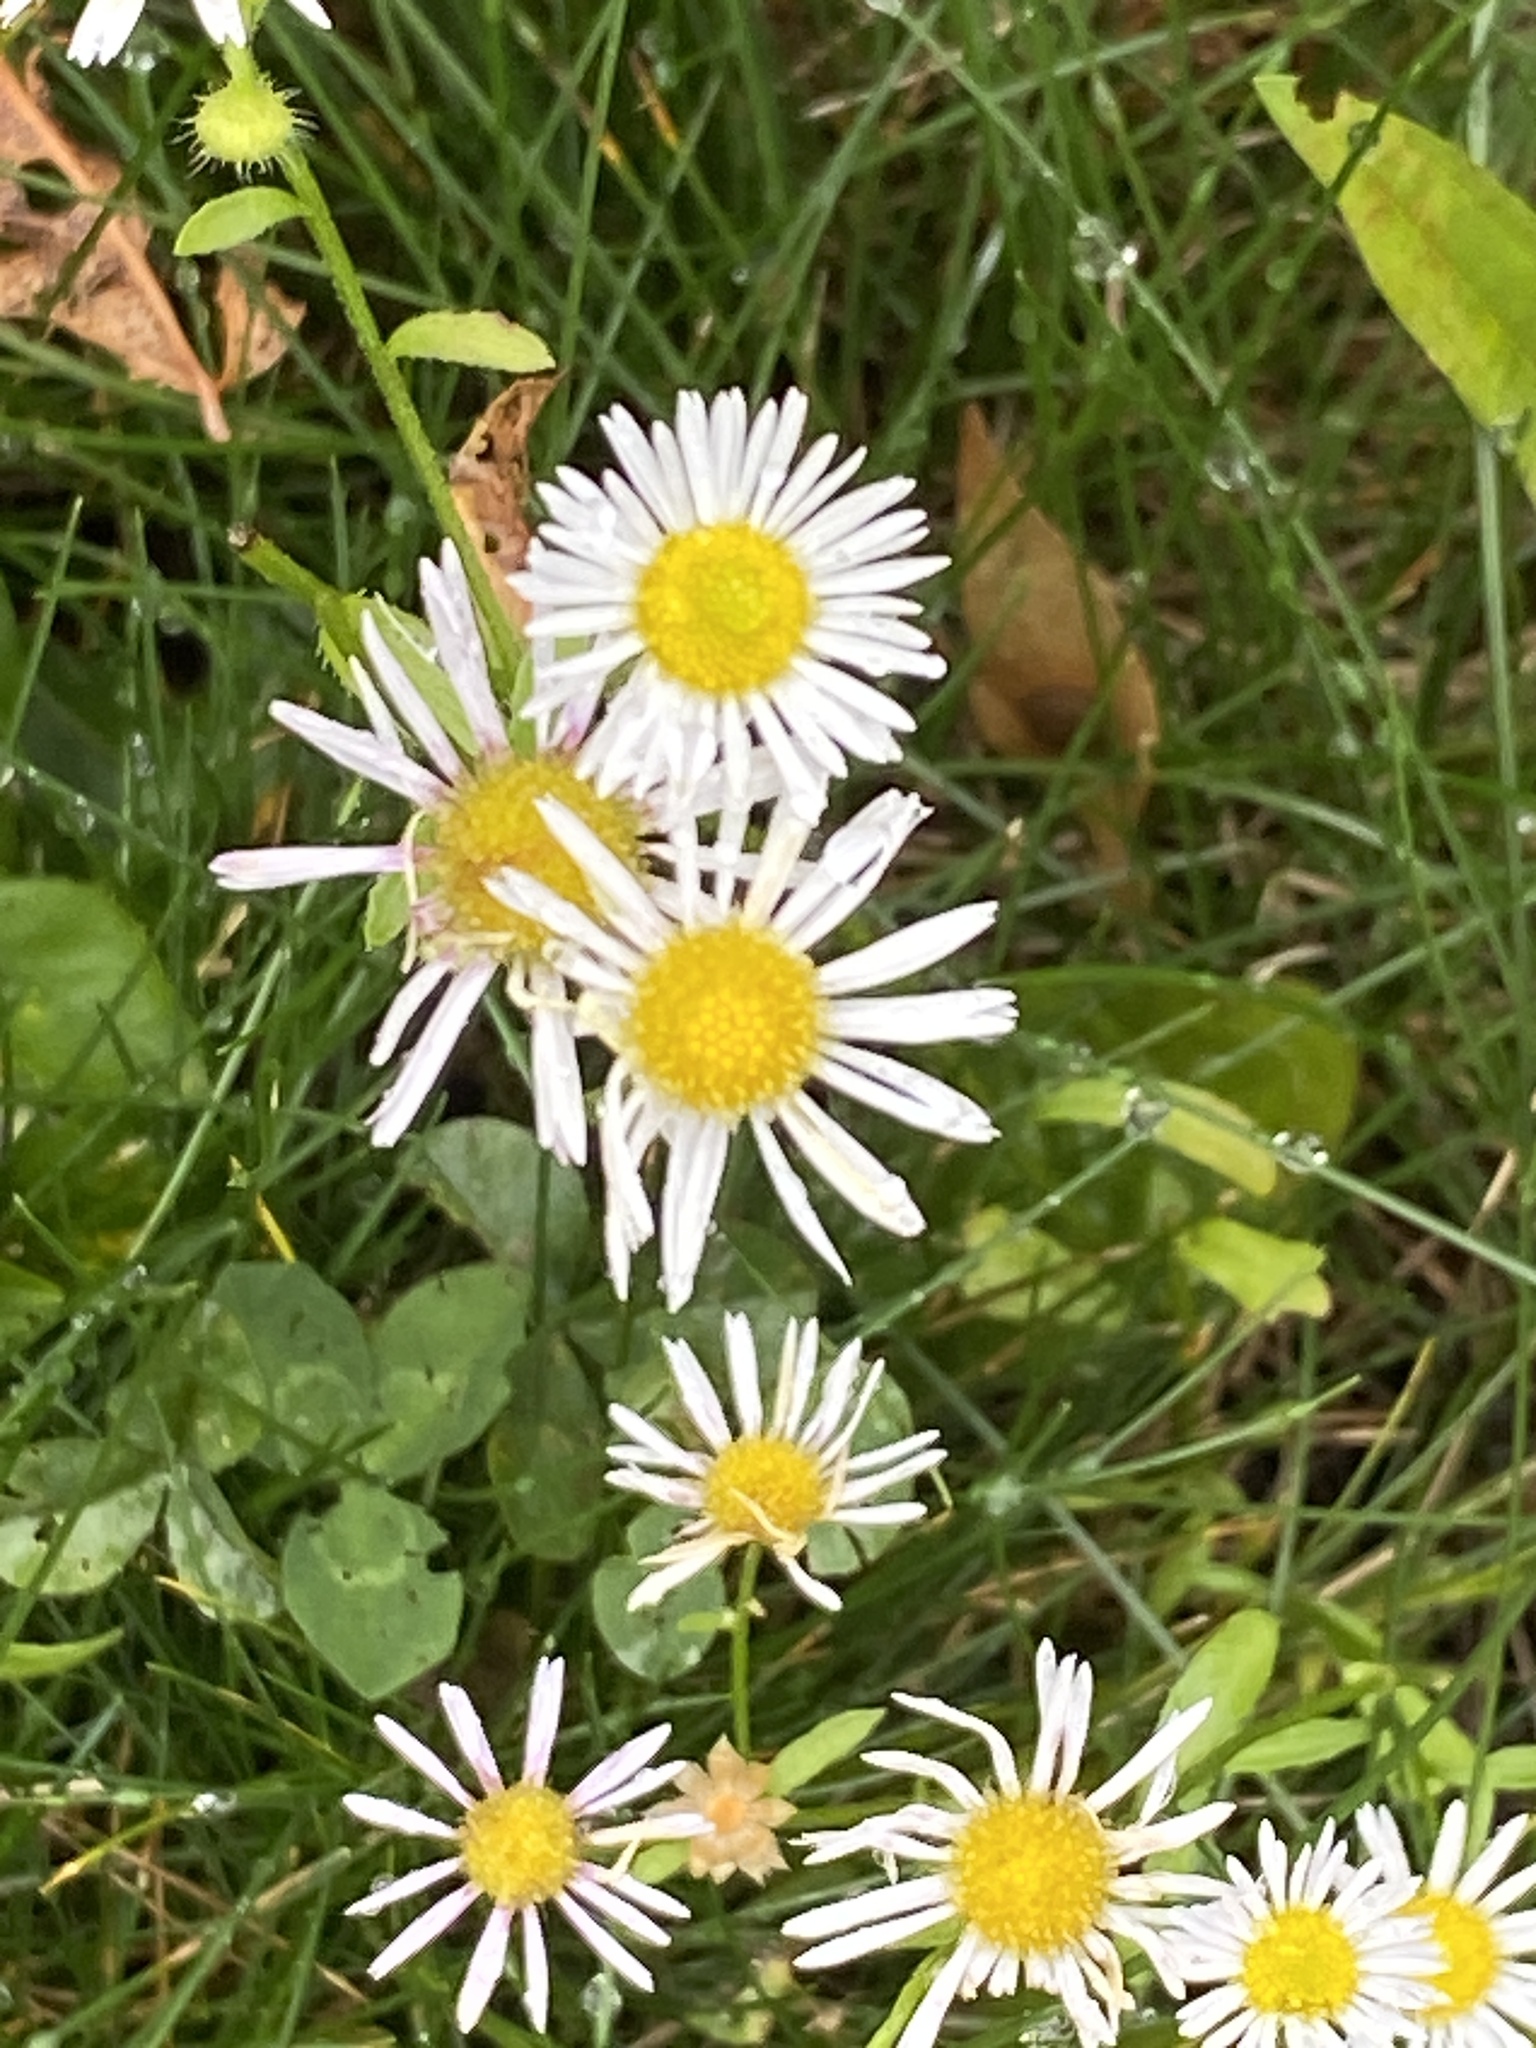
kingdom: Plantae
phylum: Tracheophyta
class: Magnoliopsida
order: Asterales
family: Asteraceae
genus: Erigeron
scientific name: Erigeron strigosus
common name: Common eastern fleabane
